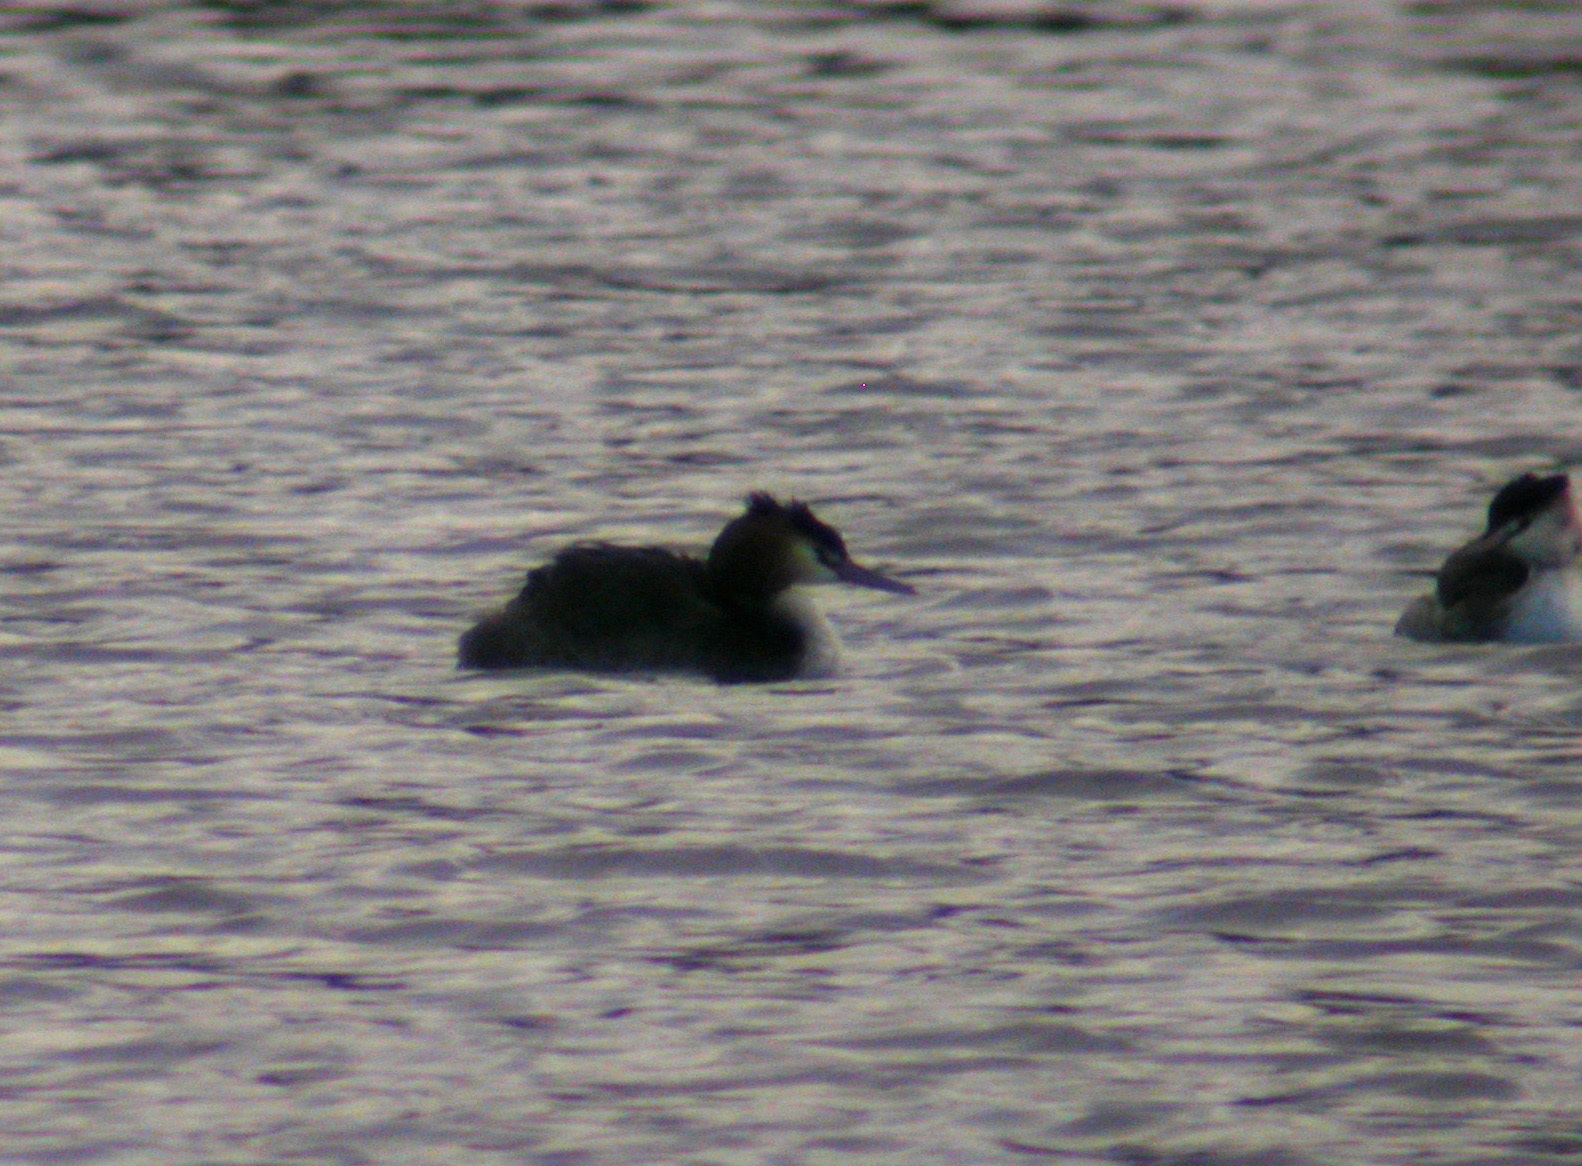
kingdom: Animalia
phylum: Chordata
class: Aves
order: Podicipediformes
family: Podicipedidae
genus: Podiceps
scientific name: Podiceps cristatus
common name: Great crested grebe
